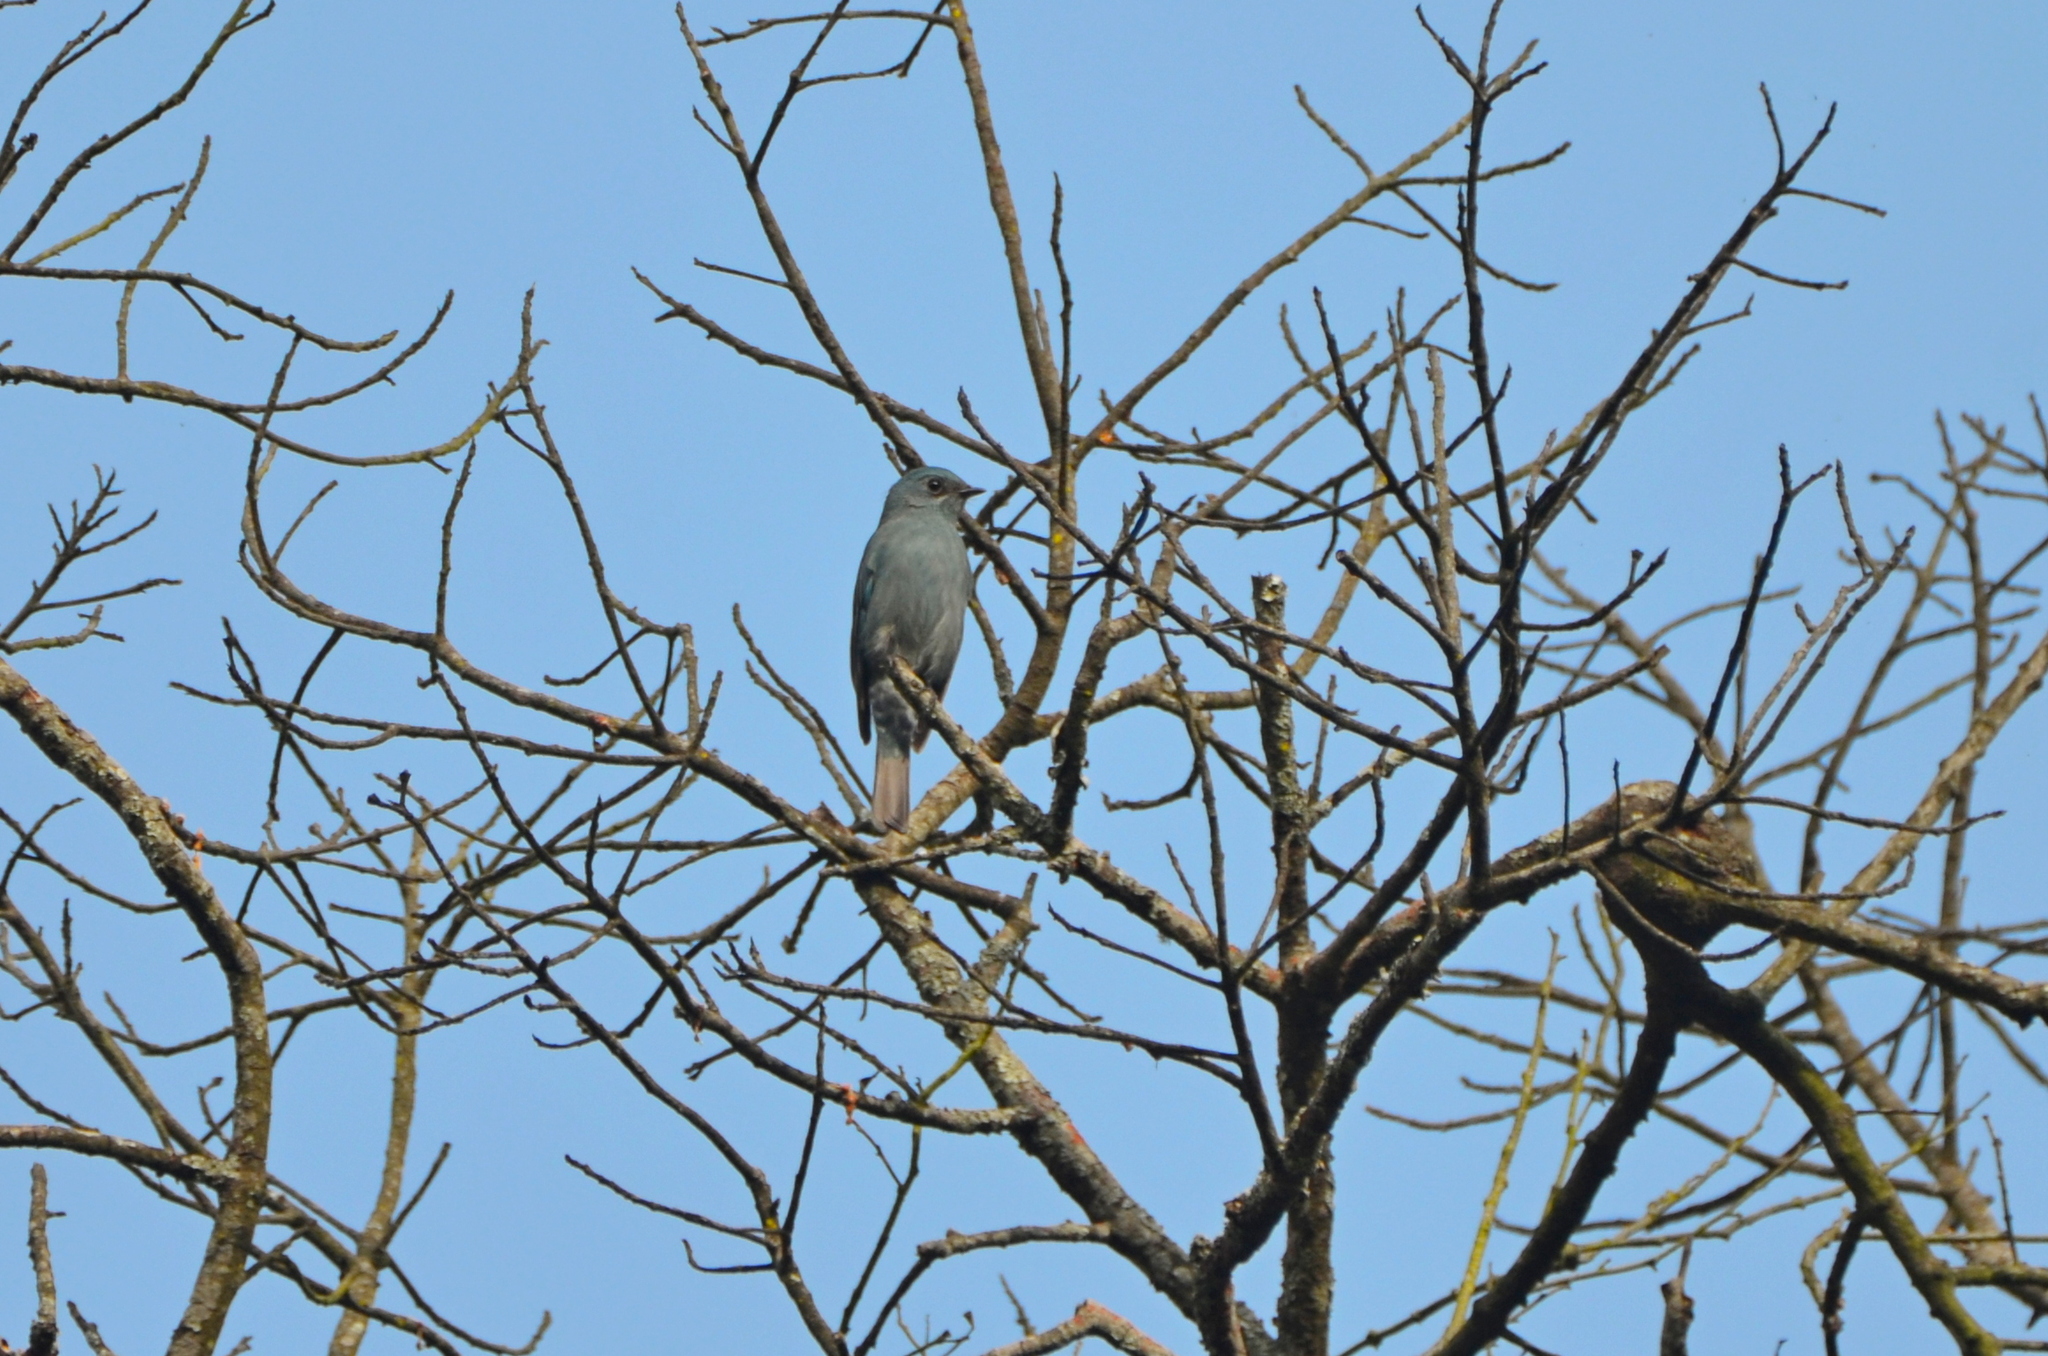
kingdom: Animalia
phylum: Chordata
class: Aves
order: Passeriformes
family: Muscicapidae
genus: Eumyias
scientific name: Eumyias thalassinus
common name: Verditer flycatcher
